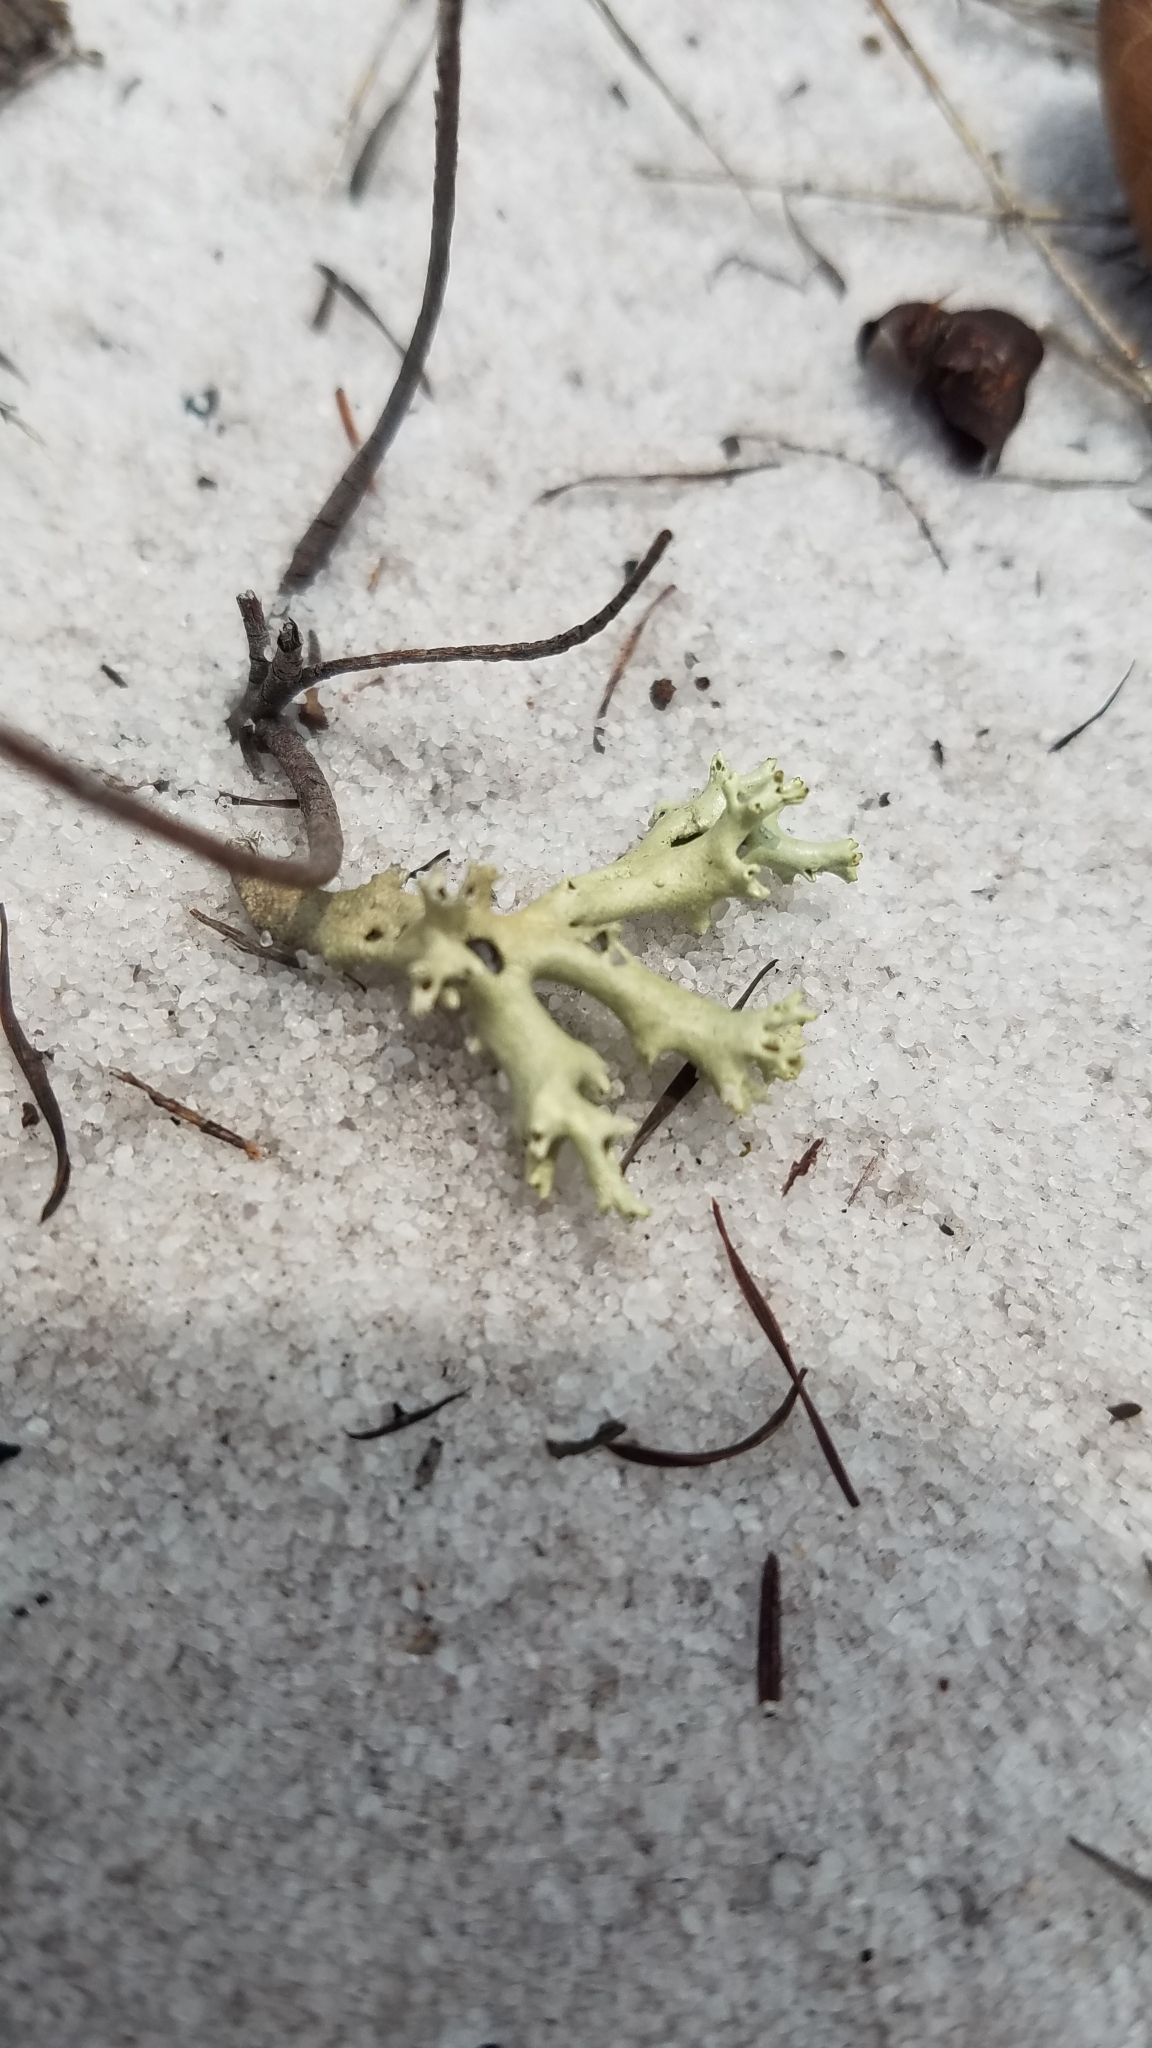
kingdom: Fungi
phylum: Ascomycota
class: Lecanoromycetes
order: Lecanorales
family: Cladoniaceae
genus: Cladonia
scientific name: Cladonia perforata
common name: Florida perforate reindeer lichen
